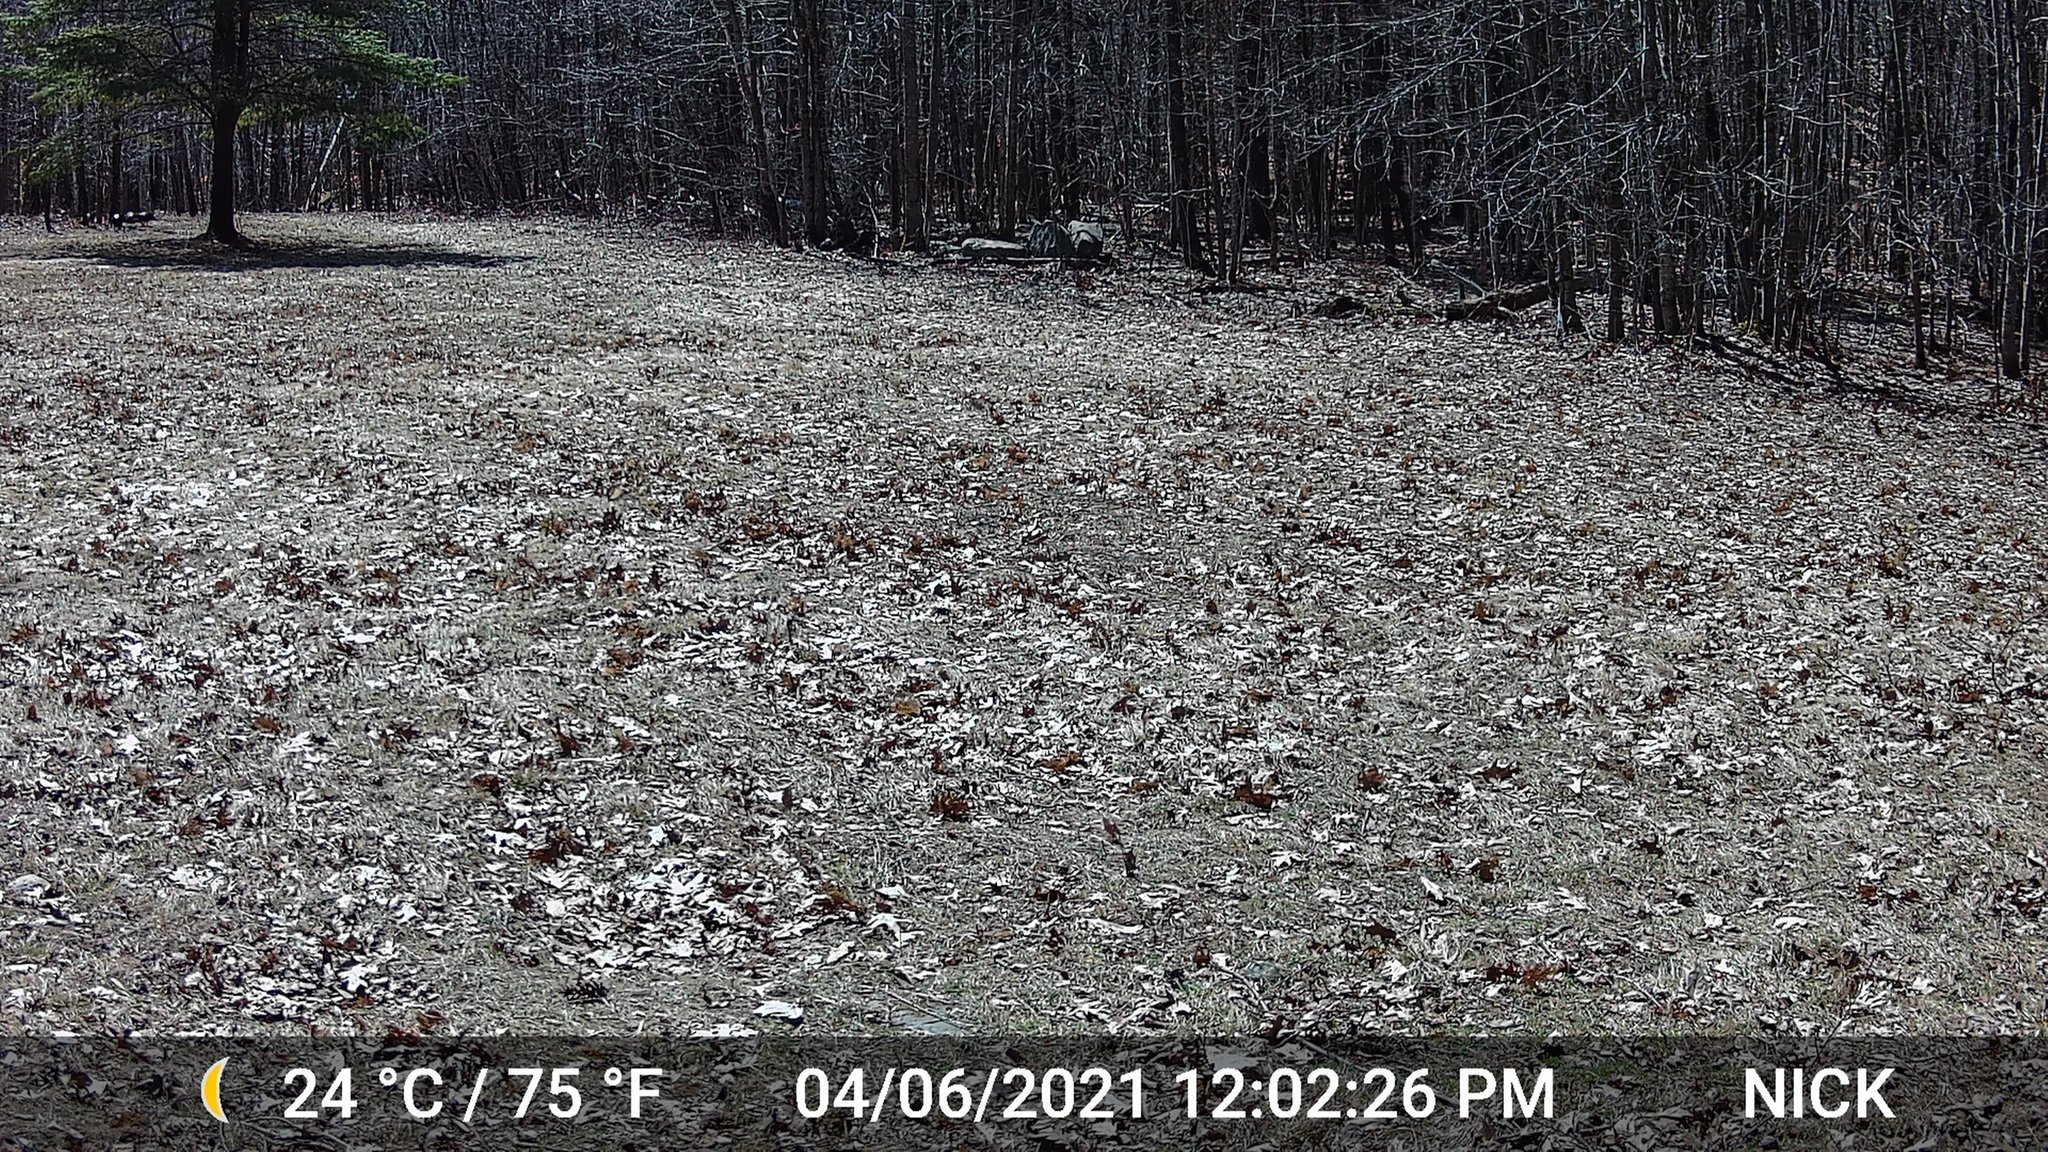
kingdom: Animalia
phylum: Chordata
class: Aves
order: Galliformes
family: Phasianidae
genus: Meleagris
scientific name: Meleagris gallopavo
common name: Wild turkey
